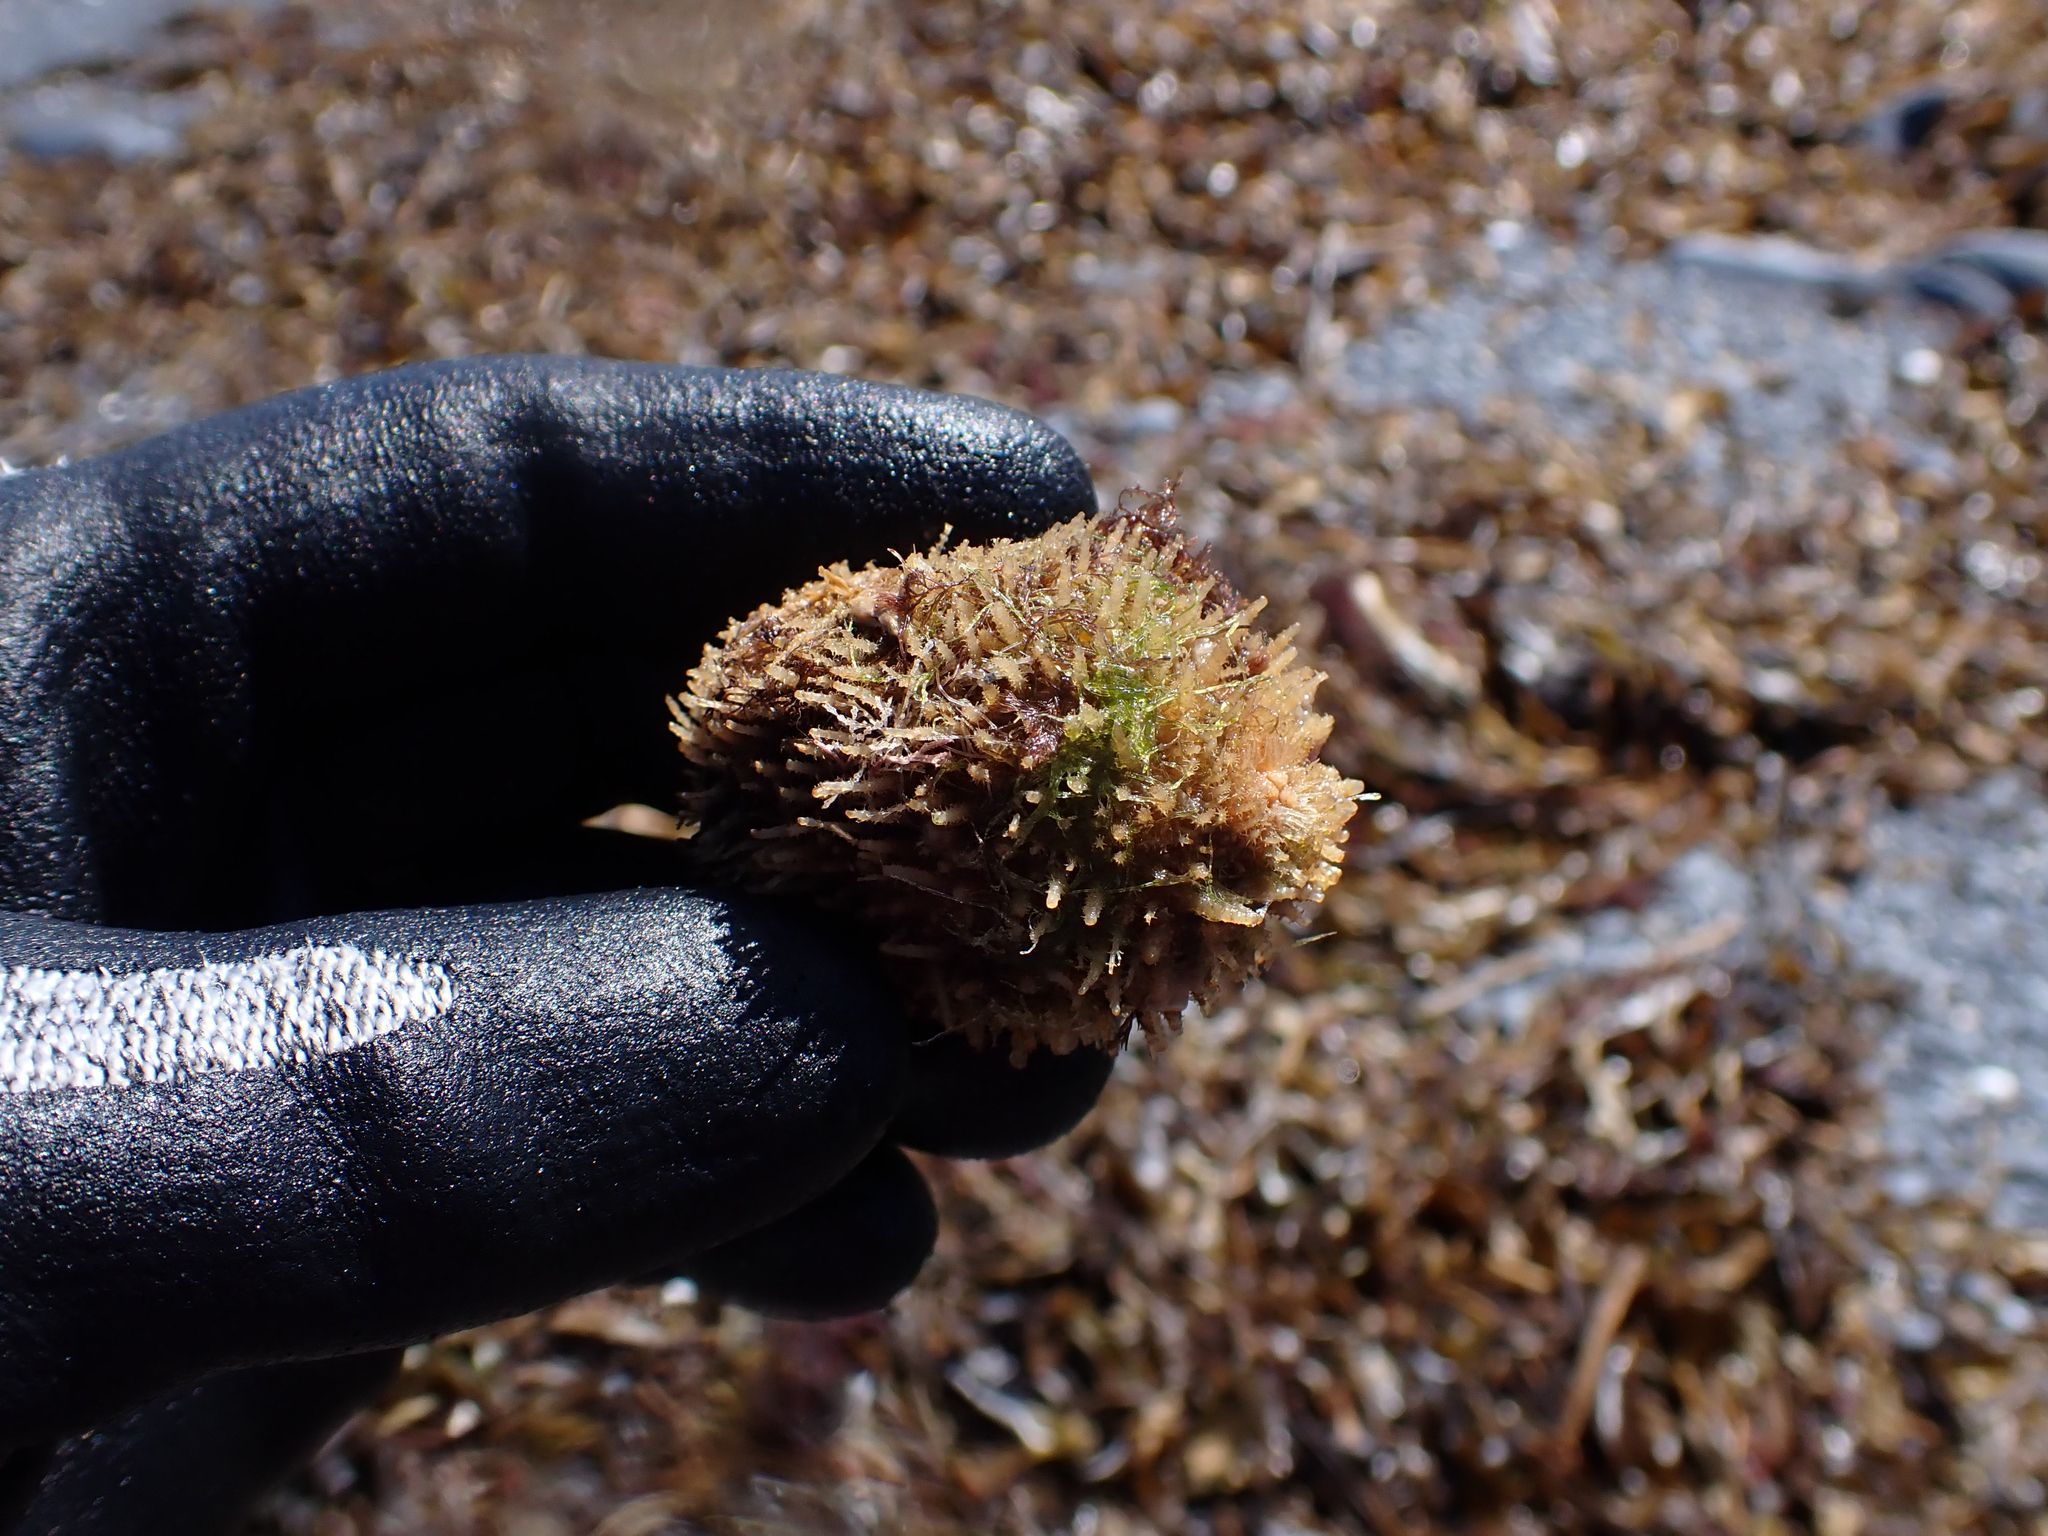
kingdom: Animalia
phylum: Chordata
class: Ascidiacea
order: Stolidobranchia
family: Pyuridae
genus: Halocynthia
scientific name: Halocynthia igaboja
